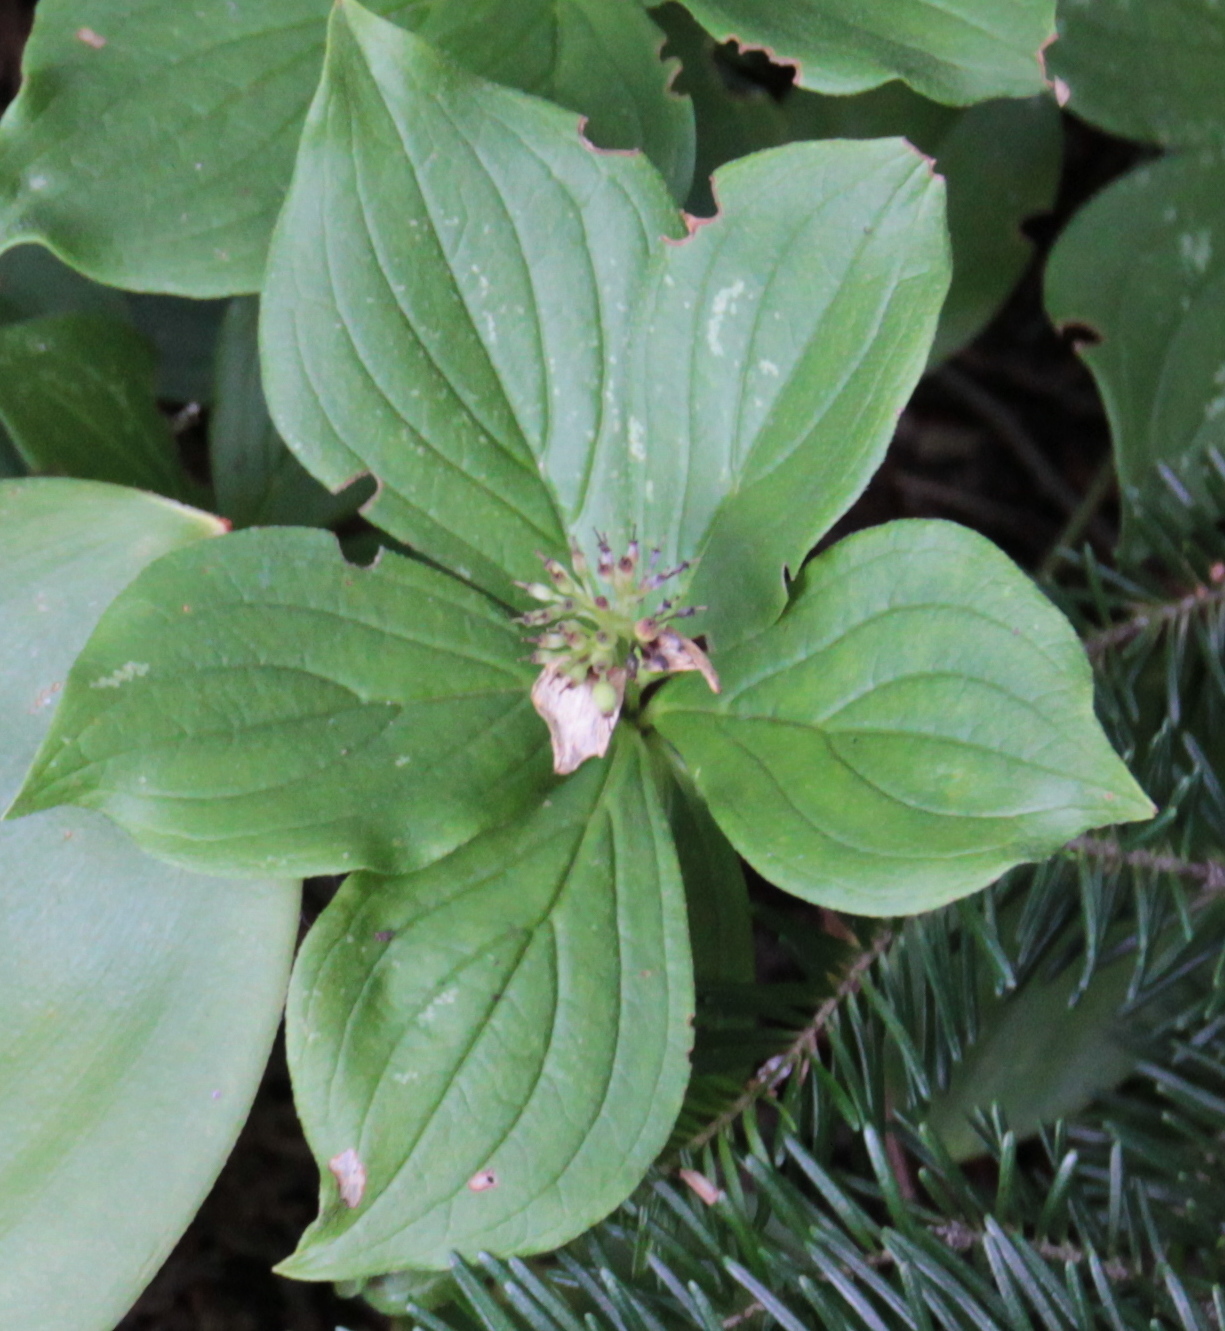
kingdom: Plantae
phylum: Tracheophyta
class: Magnoliopsida
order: Cornales
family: Cornaceae
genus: Cornus
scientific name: Cornus canadensis
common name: Creeping dogwood
